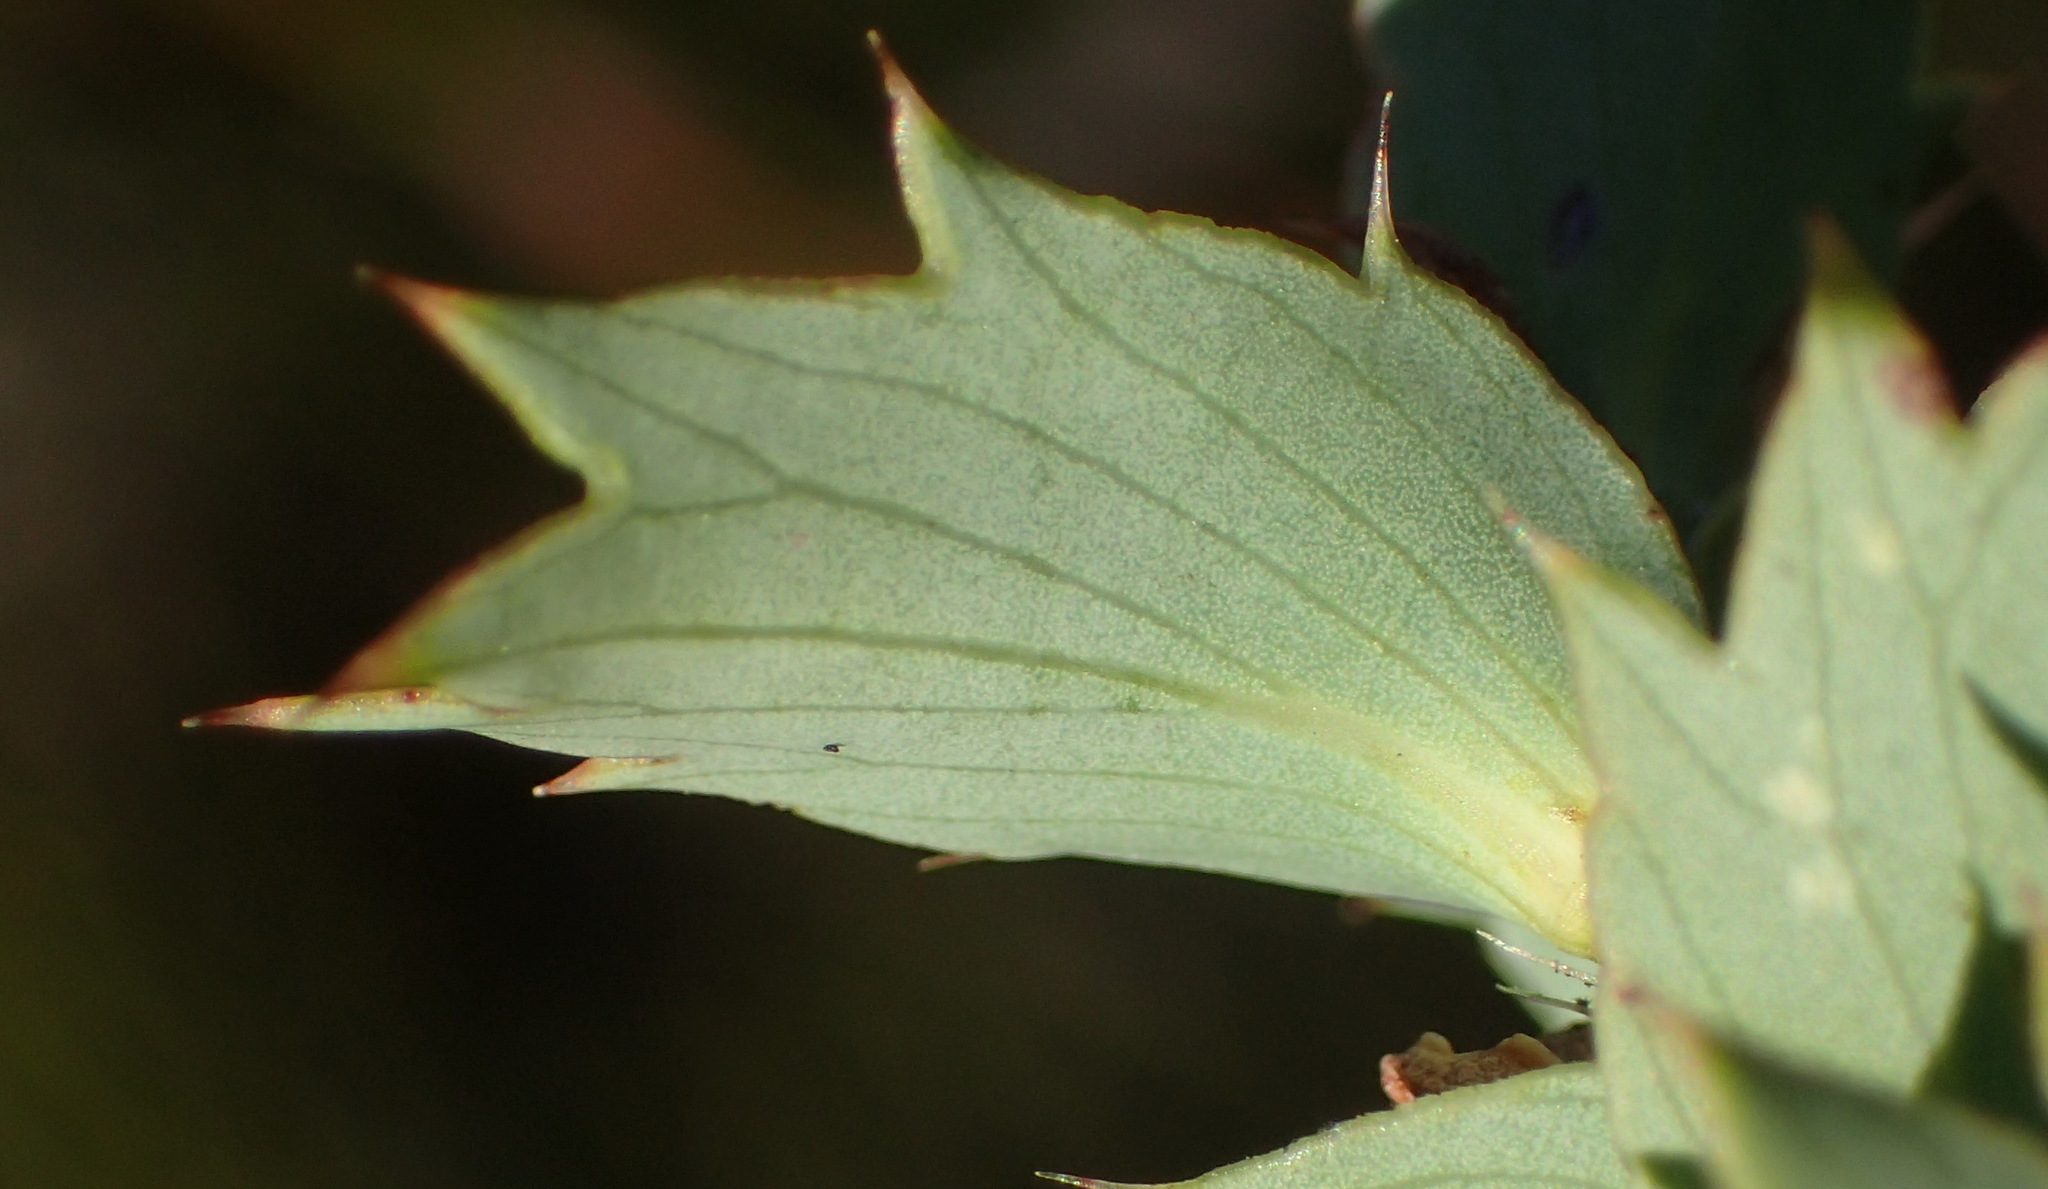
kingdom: Plantae
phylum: Tracheophyta
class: Magnoliopsida
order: Rosales
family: Rosaceae
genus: Cliffortia
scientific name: Cliffortia ilicifolia
